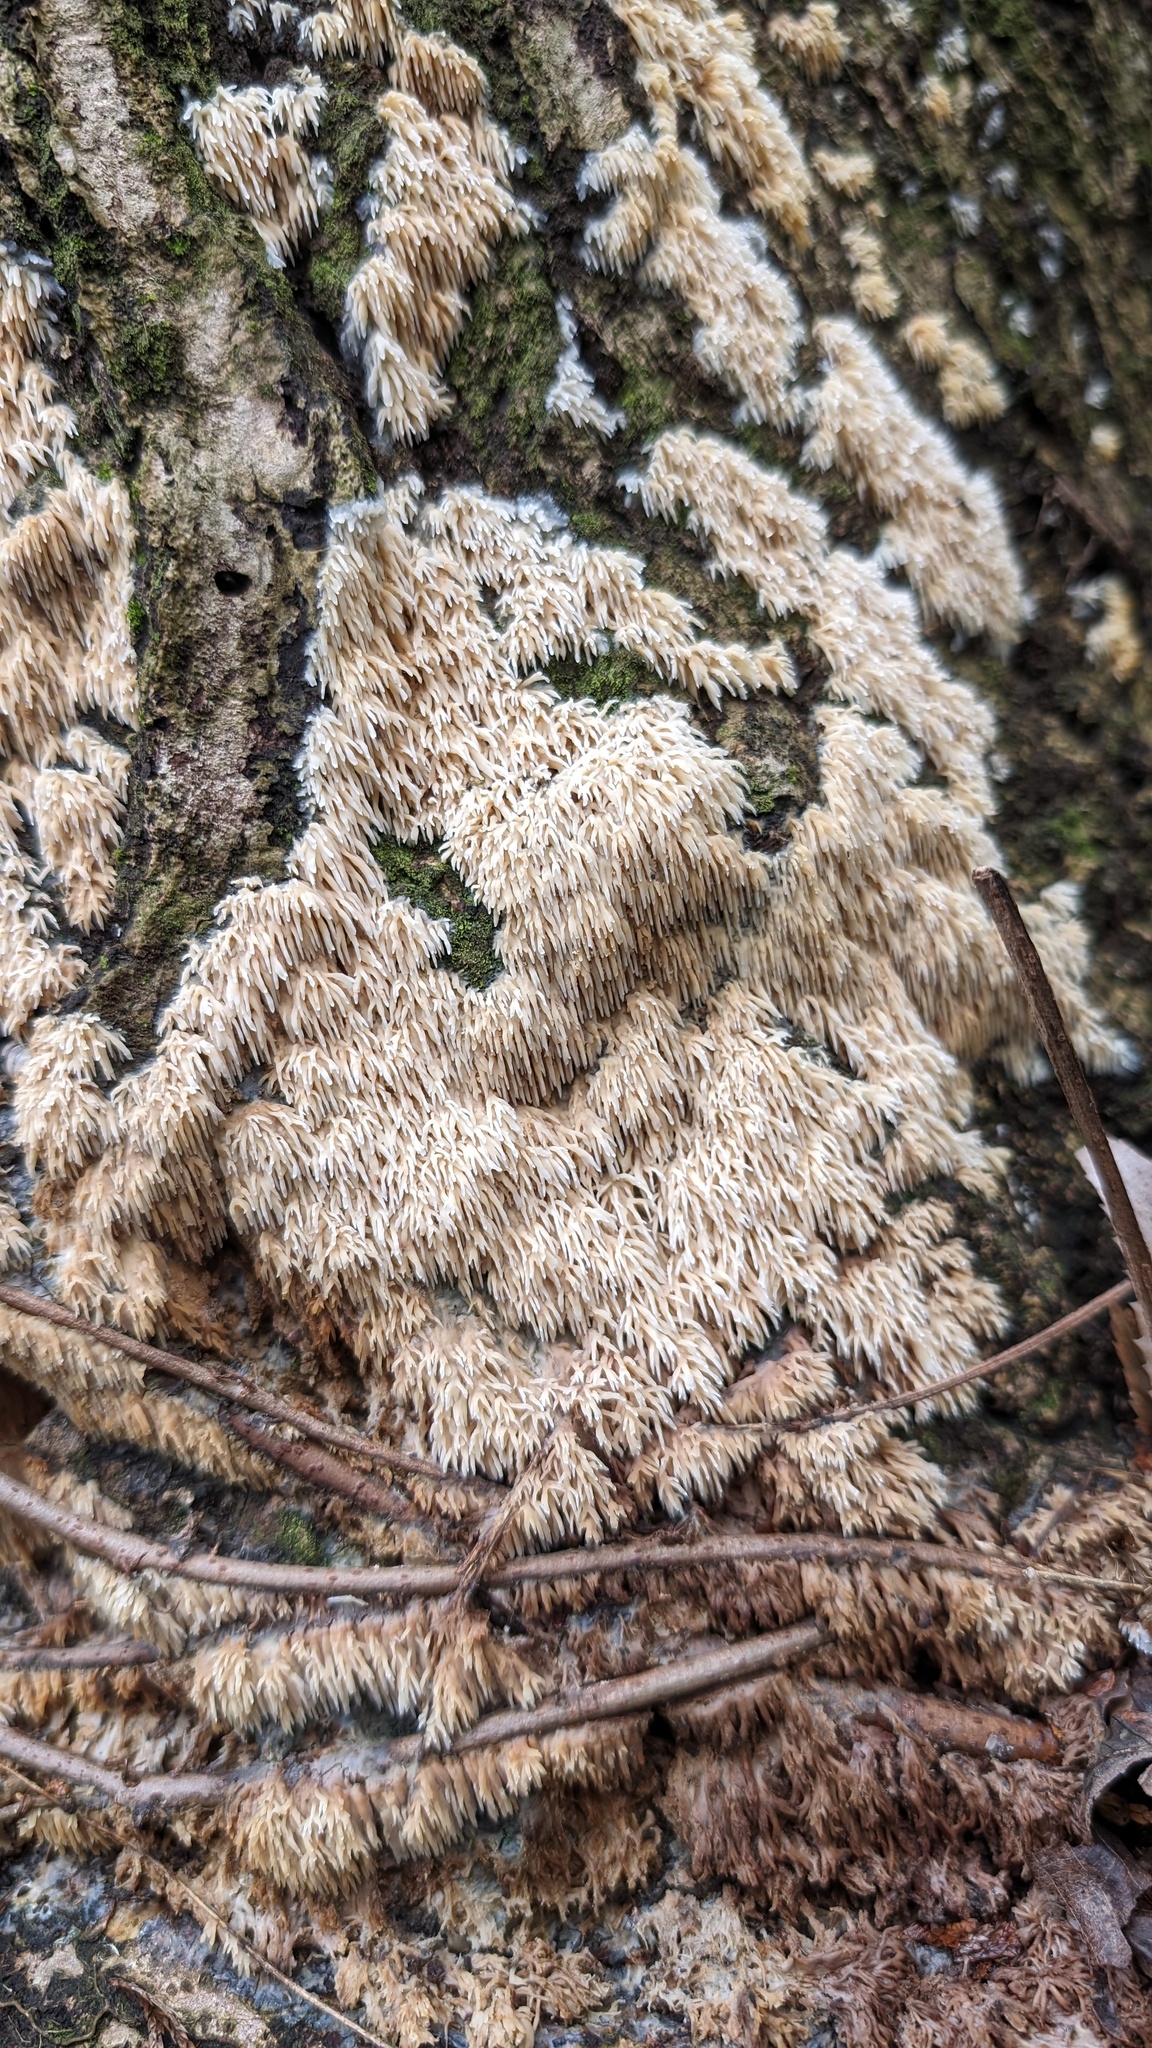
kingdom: Fungi
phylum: Basidiomycota
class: Agaricomycetes
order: Agaricales
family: Radulomycetaceae
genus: Radulomyces
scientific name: Radulomyces copelandii
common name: Asian beauty
